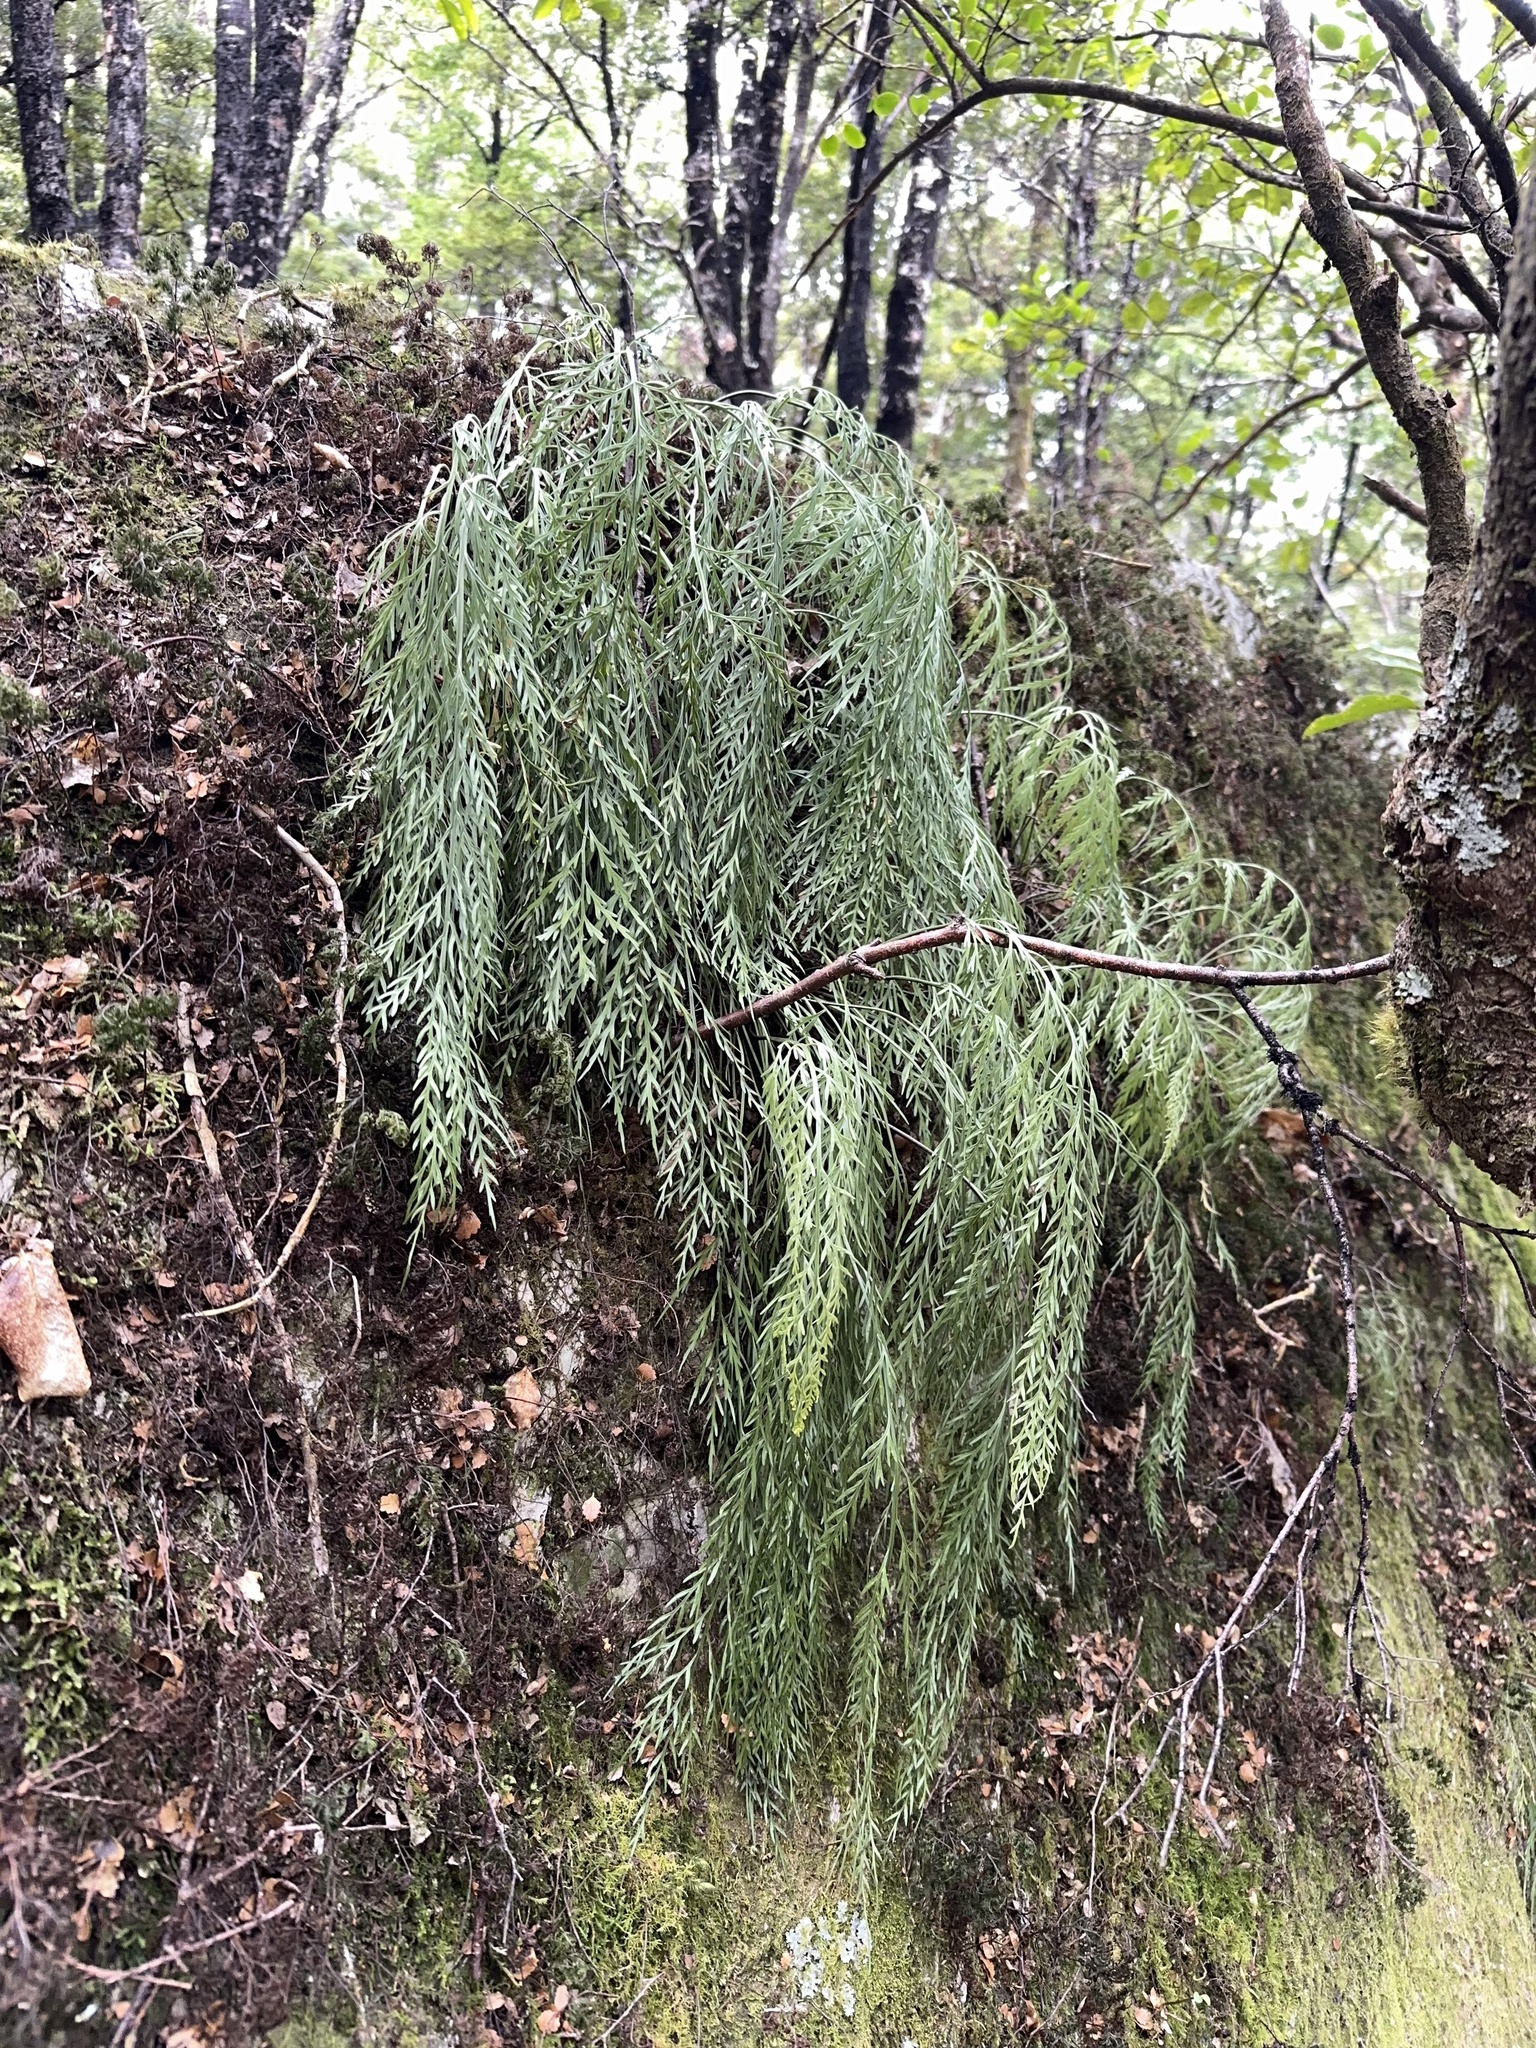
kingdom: Plantae
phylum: Tracheophyta
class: Polypodiopsida
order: Polypodiales
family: Aspleniaceae
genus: Asplenium
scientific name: Asplenium flaccidum
